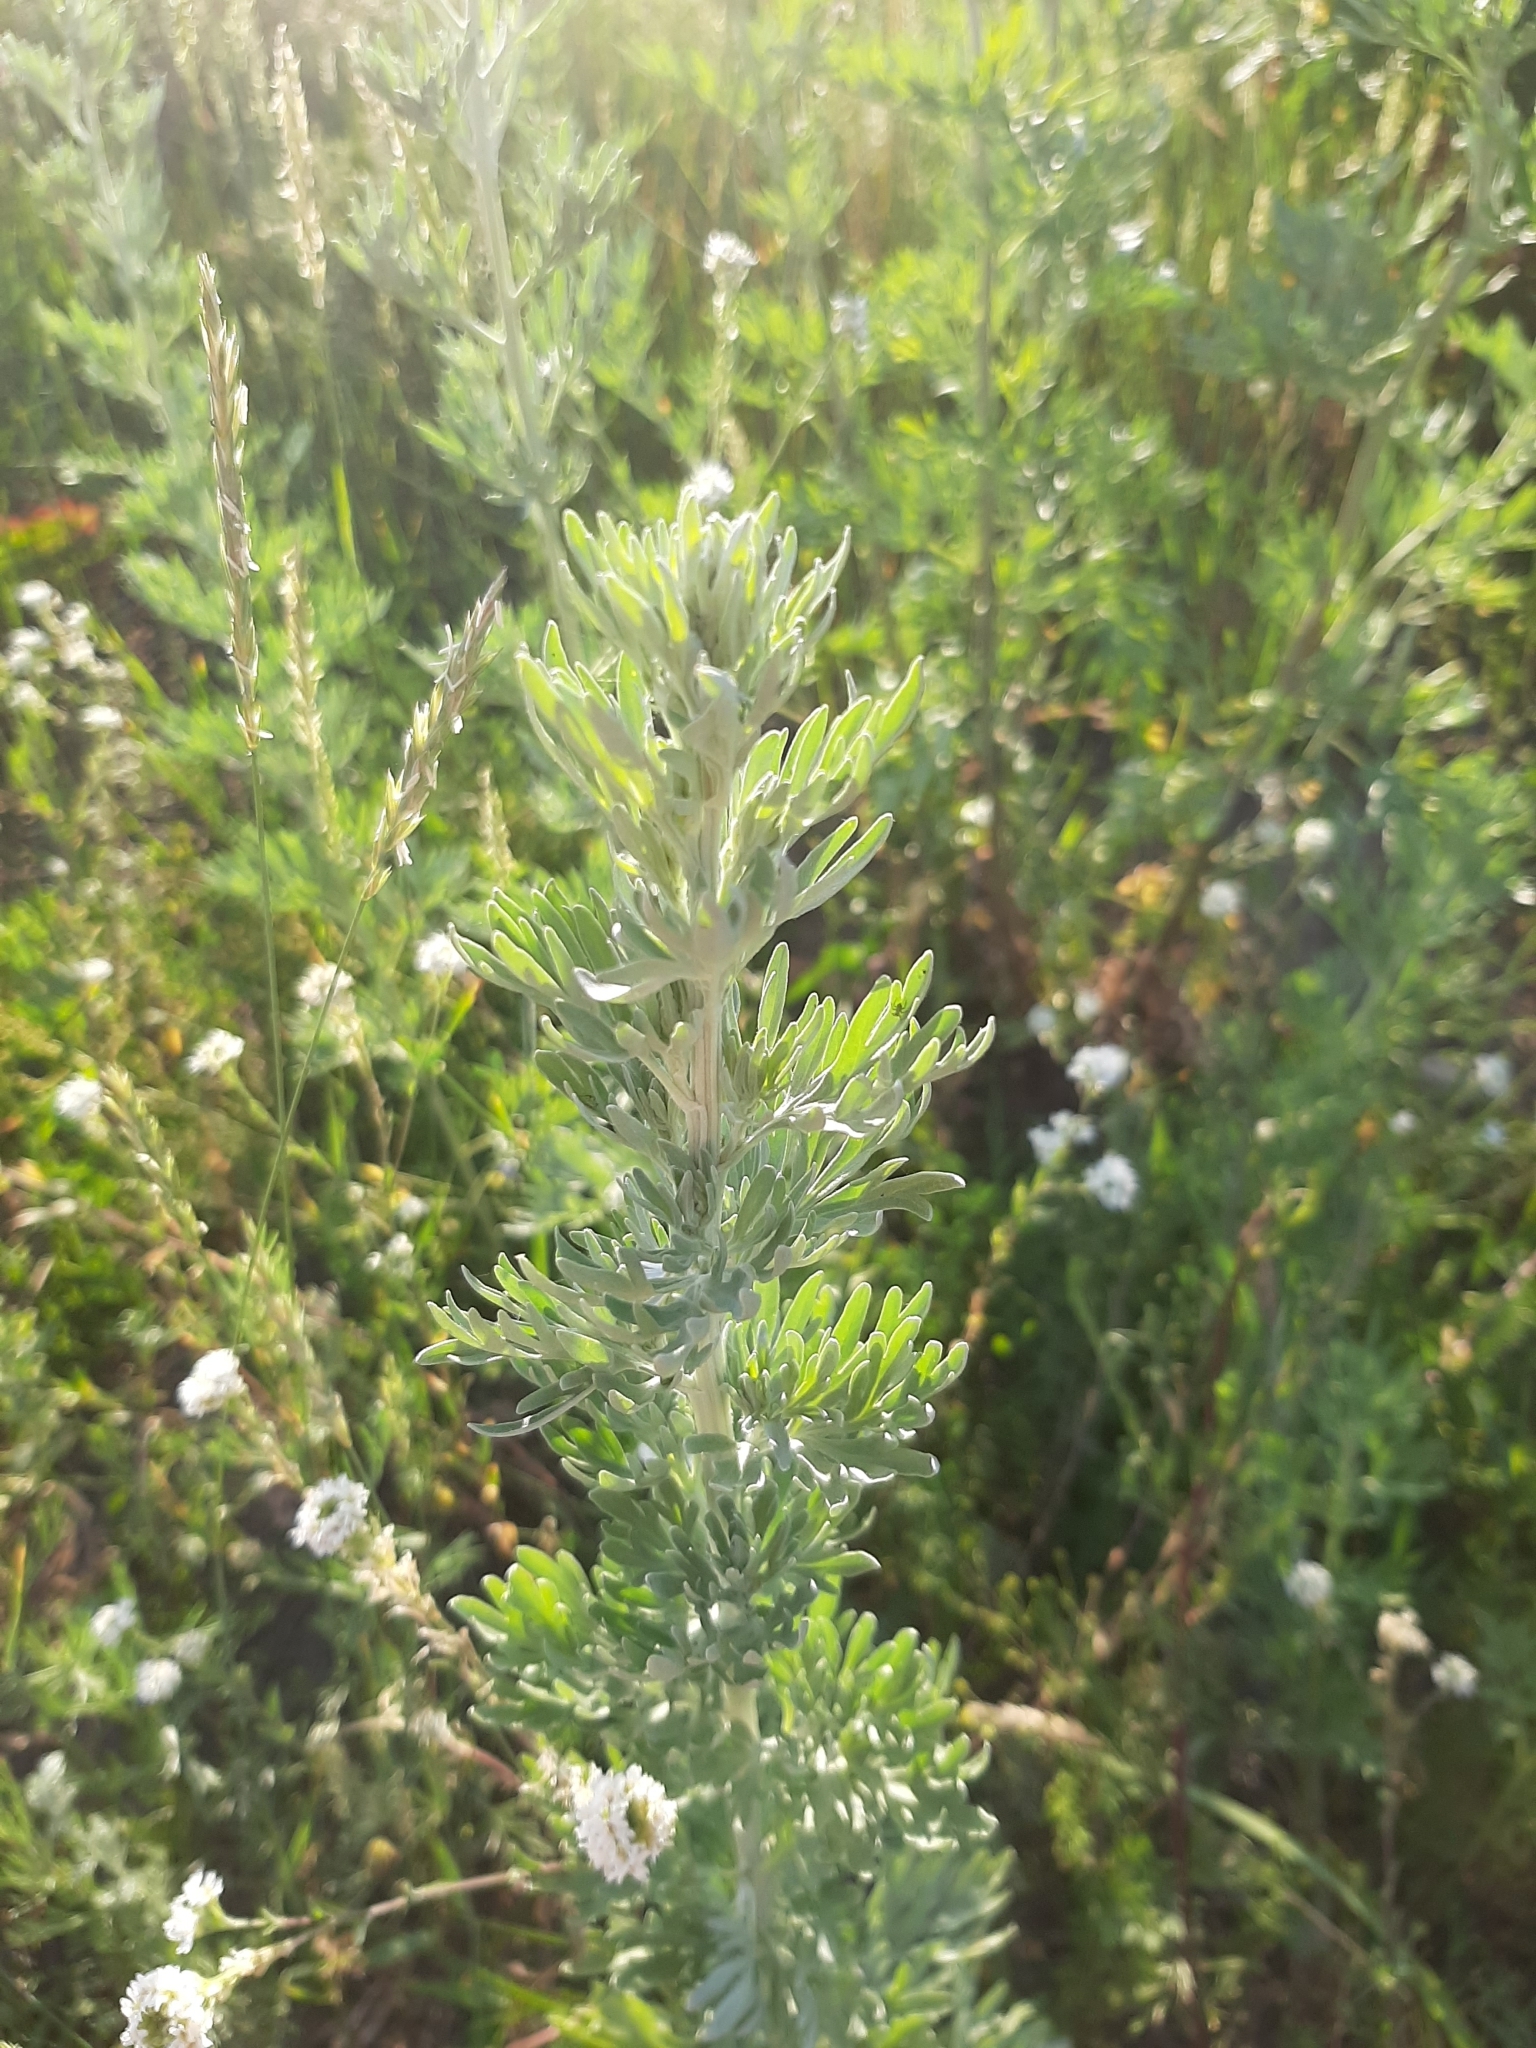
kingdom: Plantae
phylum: Tracheophyta
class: Magnoliopsida
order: Asterales
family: Asteraceae
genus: Artemisia
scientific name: Artemisia absinthium
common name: Wormwood
